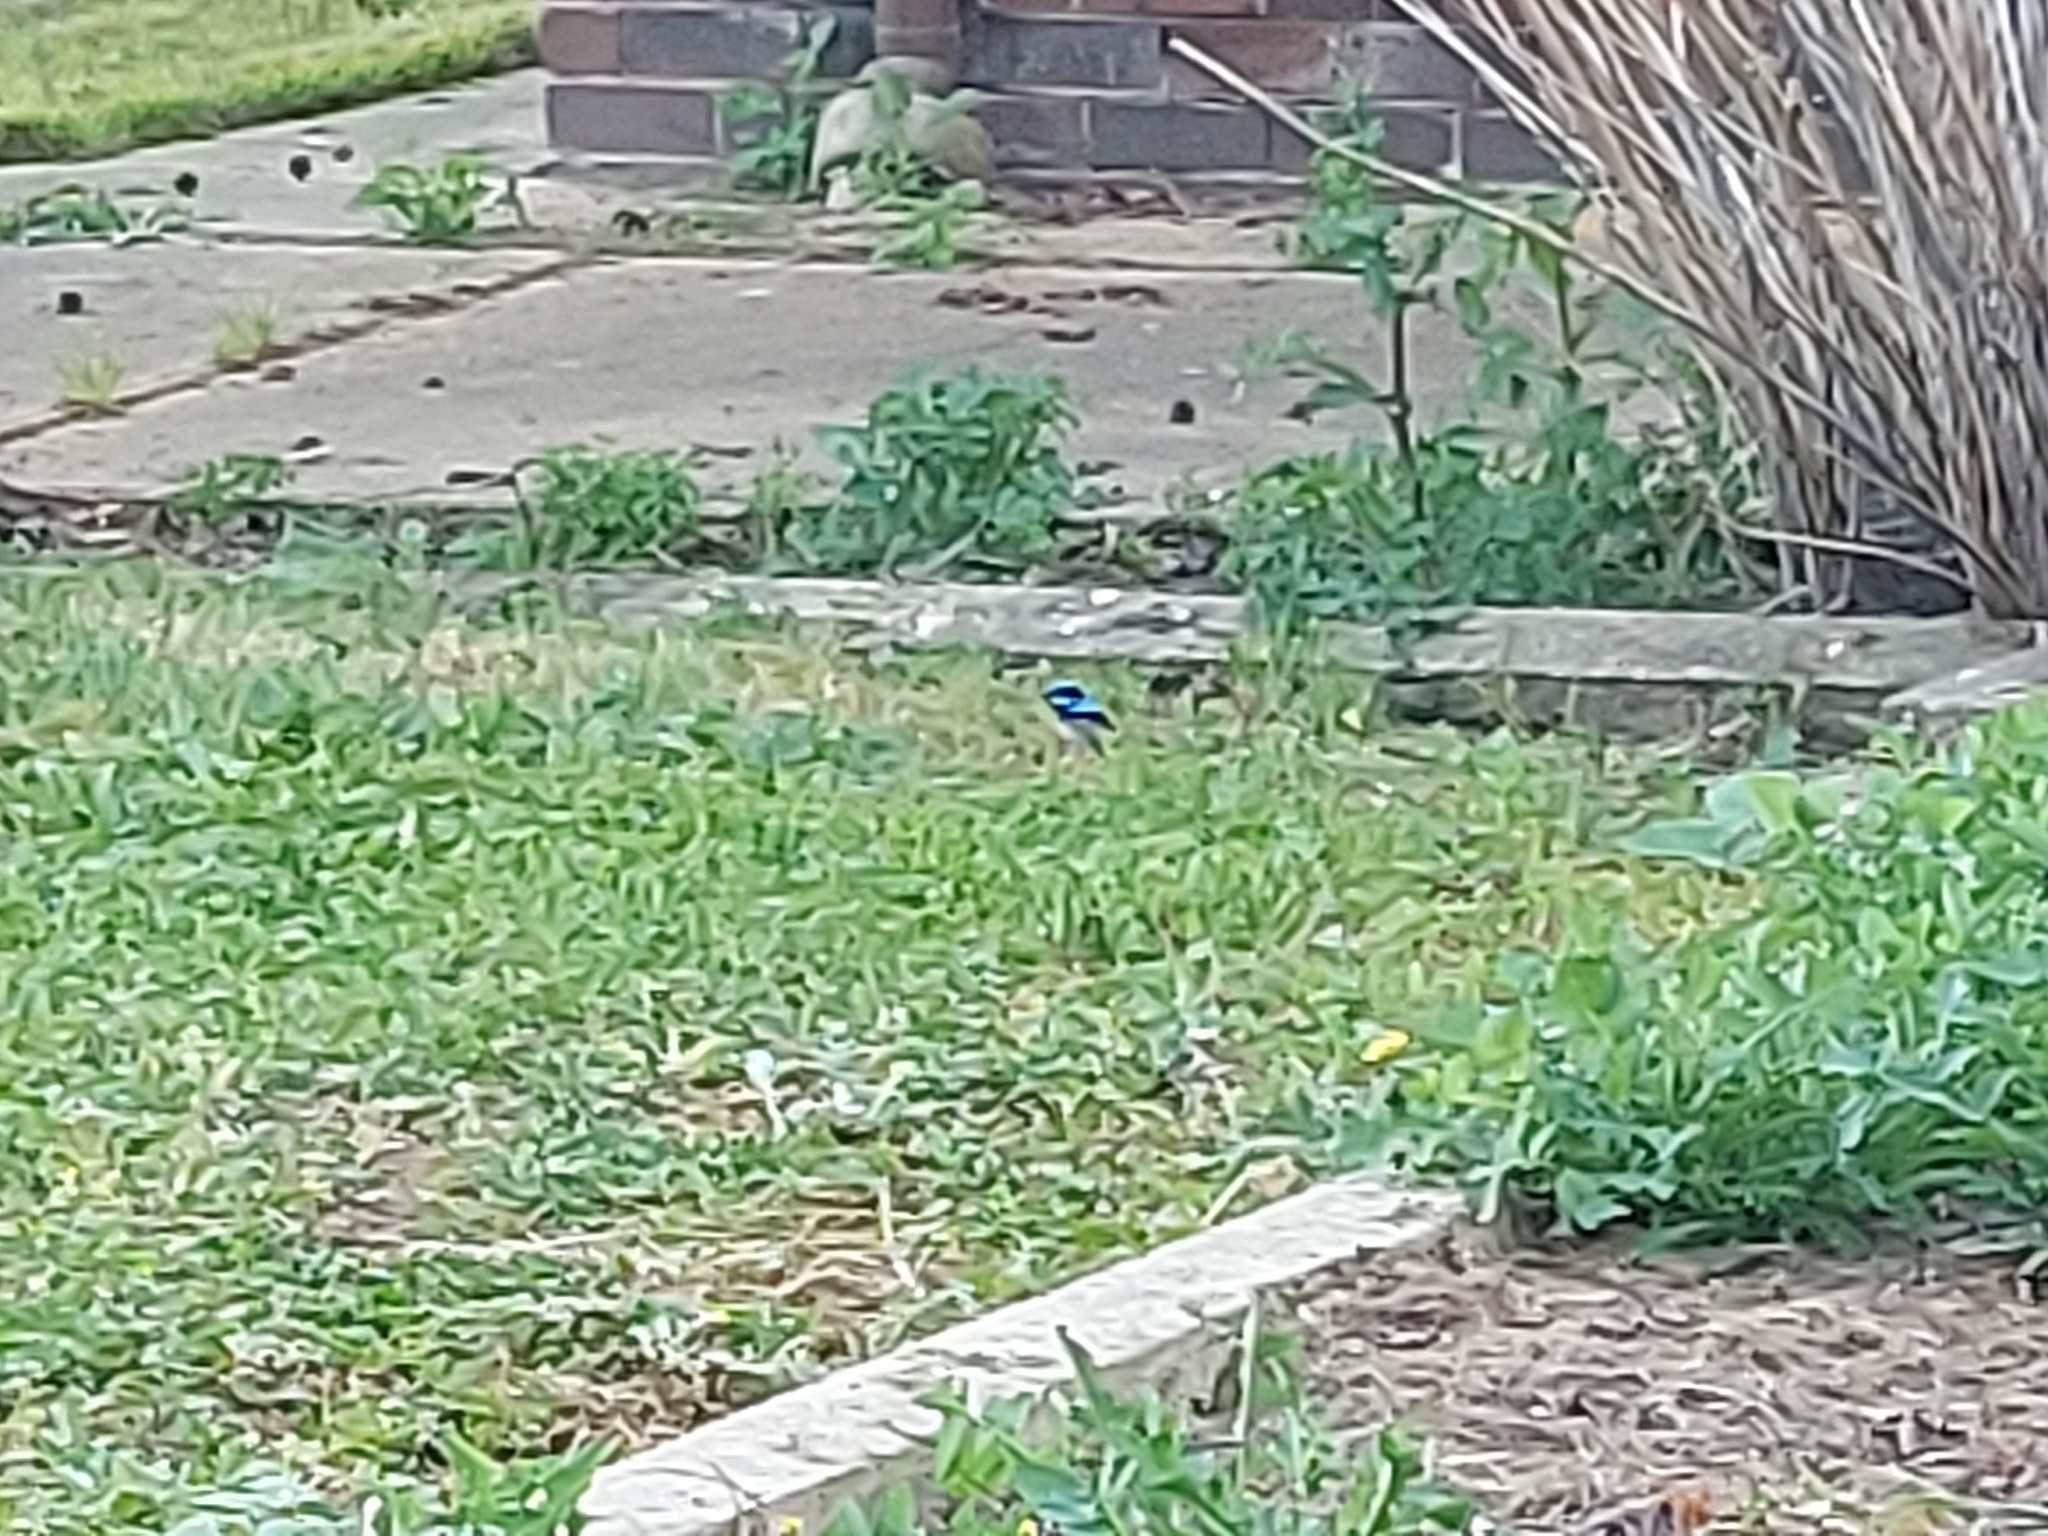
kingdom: Animalia
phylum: Chordata
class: Aves
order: Passeriformes
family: Maluridae
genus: Malurus
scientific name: Malurus cyaneus
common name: Superb fairywren
